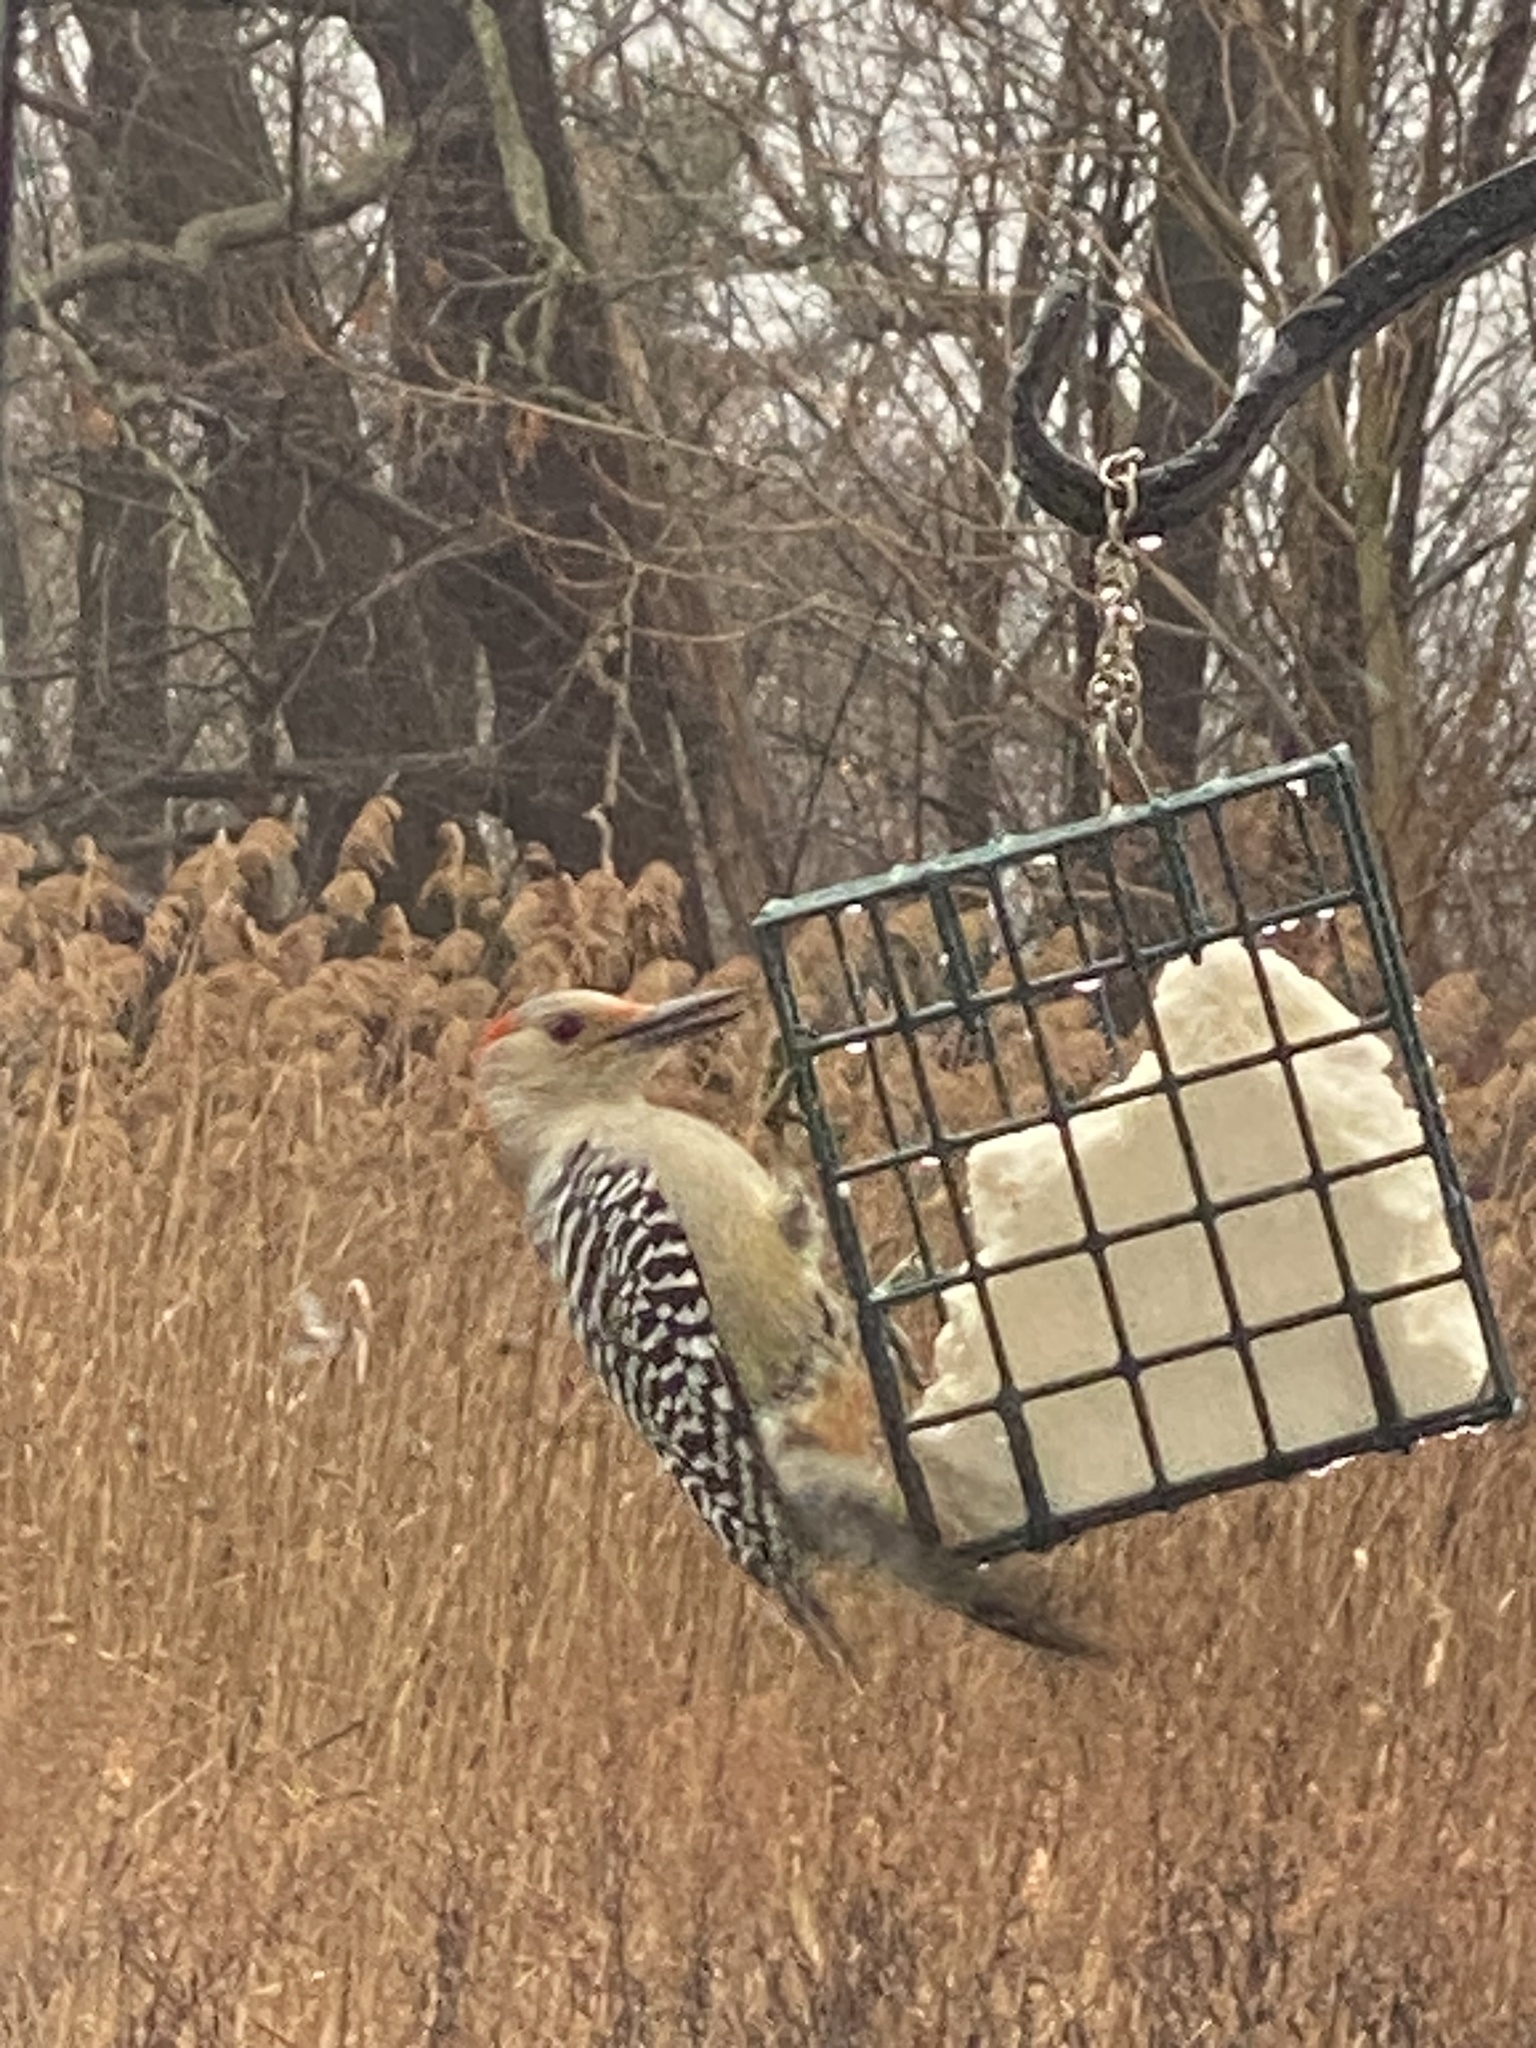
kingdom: Animalia
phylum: Chordata
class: Aves
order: Piciformes
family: Picidae
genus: Melanerpes
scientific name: Melanerpes carolinus
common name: Red-bellied woodpecker
